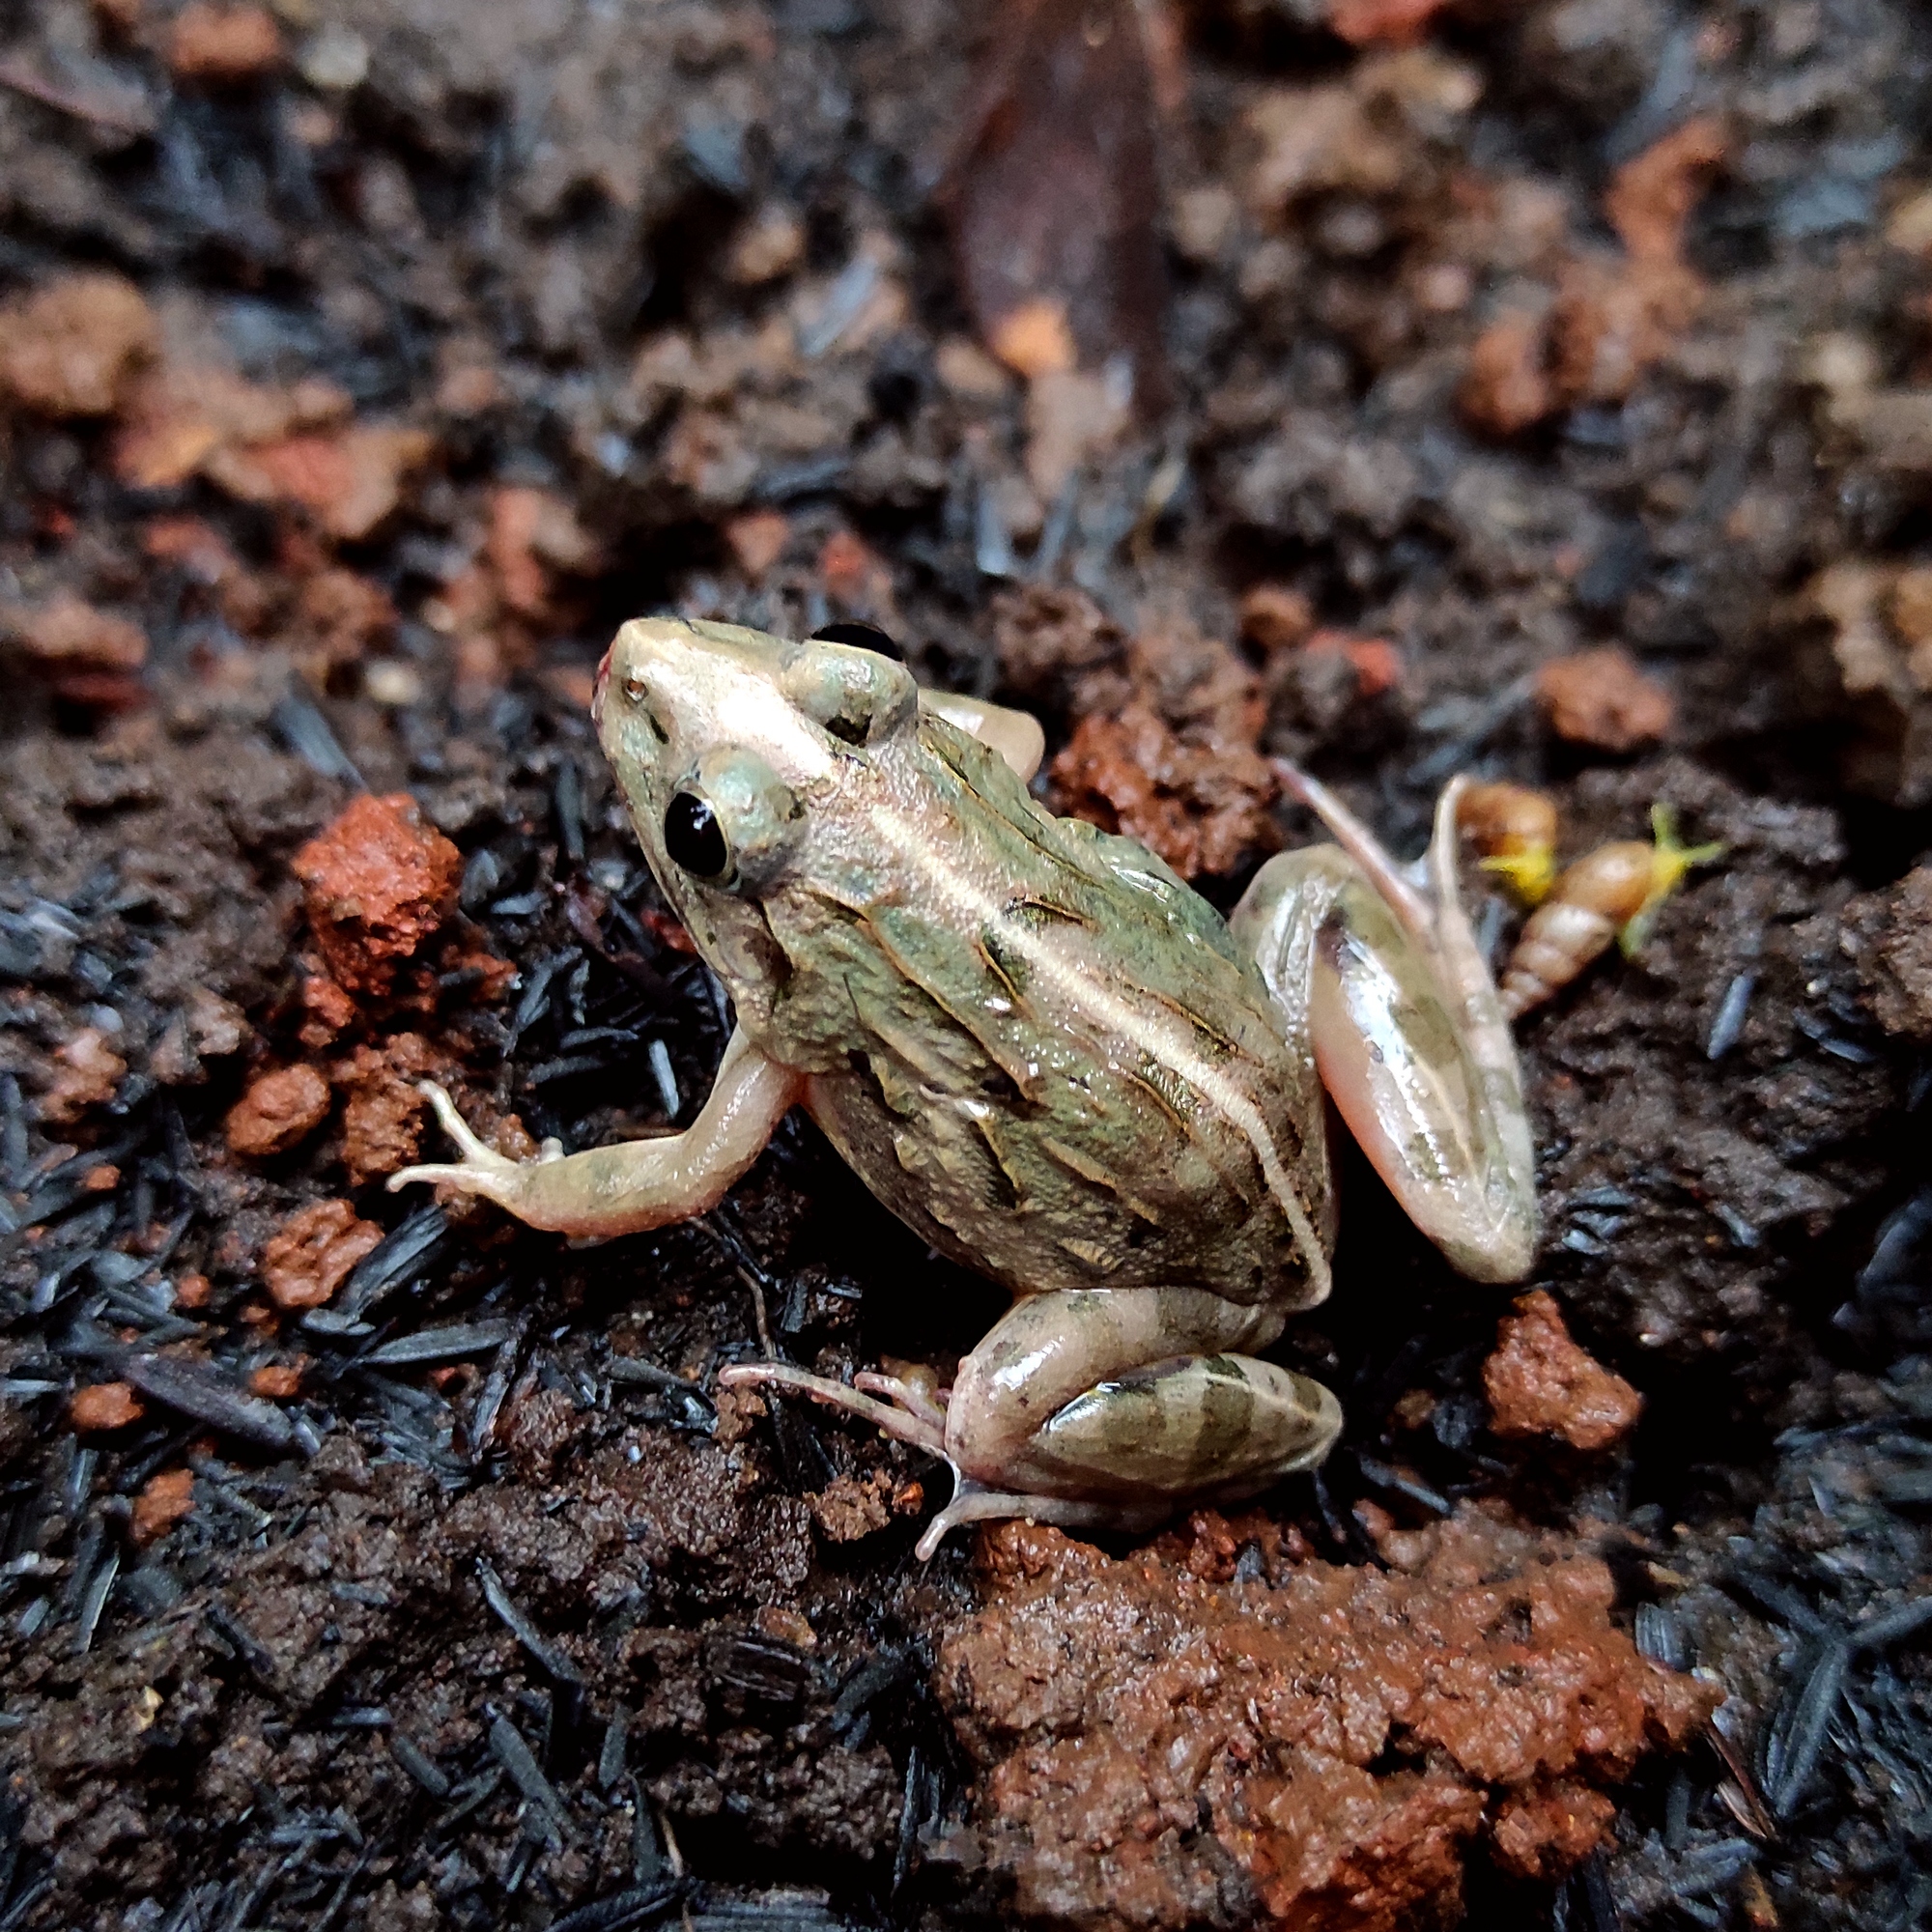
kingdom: Animalia
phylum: Chordata
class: Amphibia
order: Anura
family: Dicroglossidae
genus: Fejervarya
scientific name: Fejervarya limnocharis
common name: Asian grass frog/common pond frog/field frog/grass frog/indian rice frog
